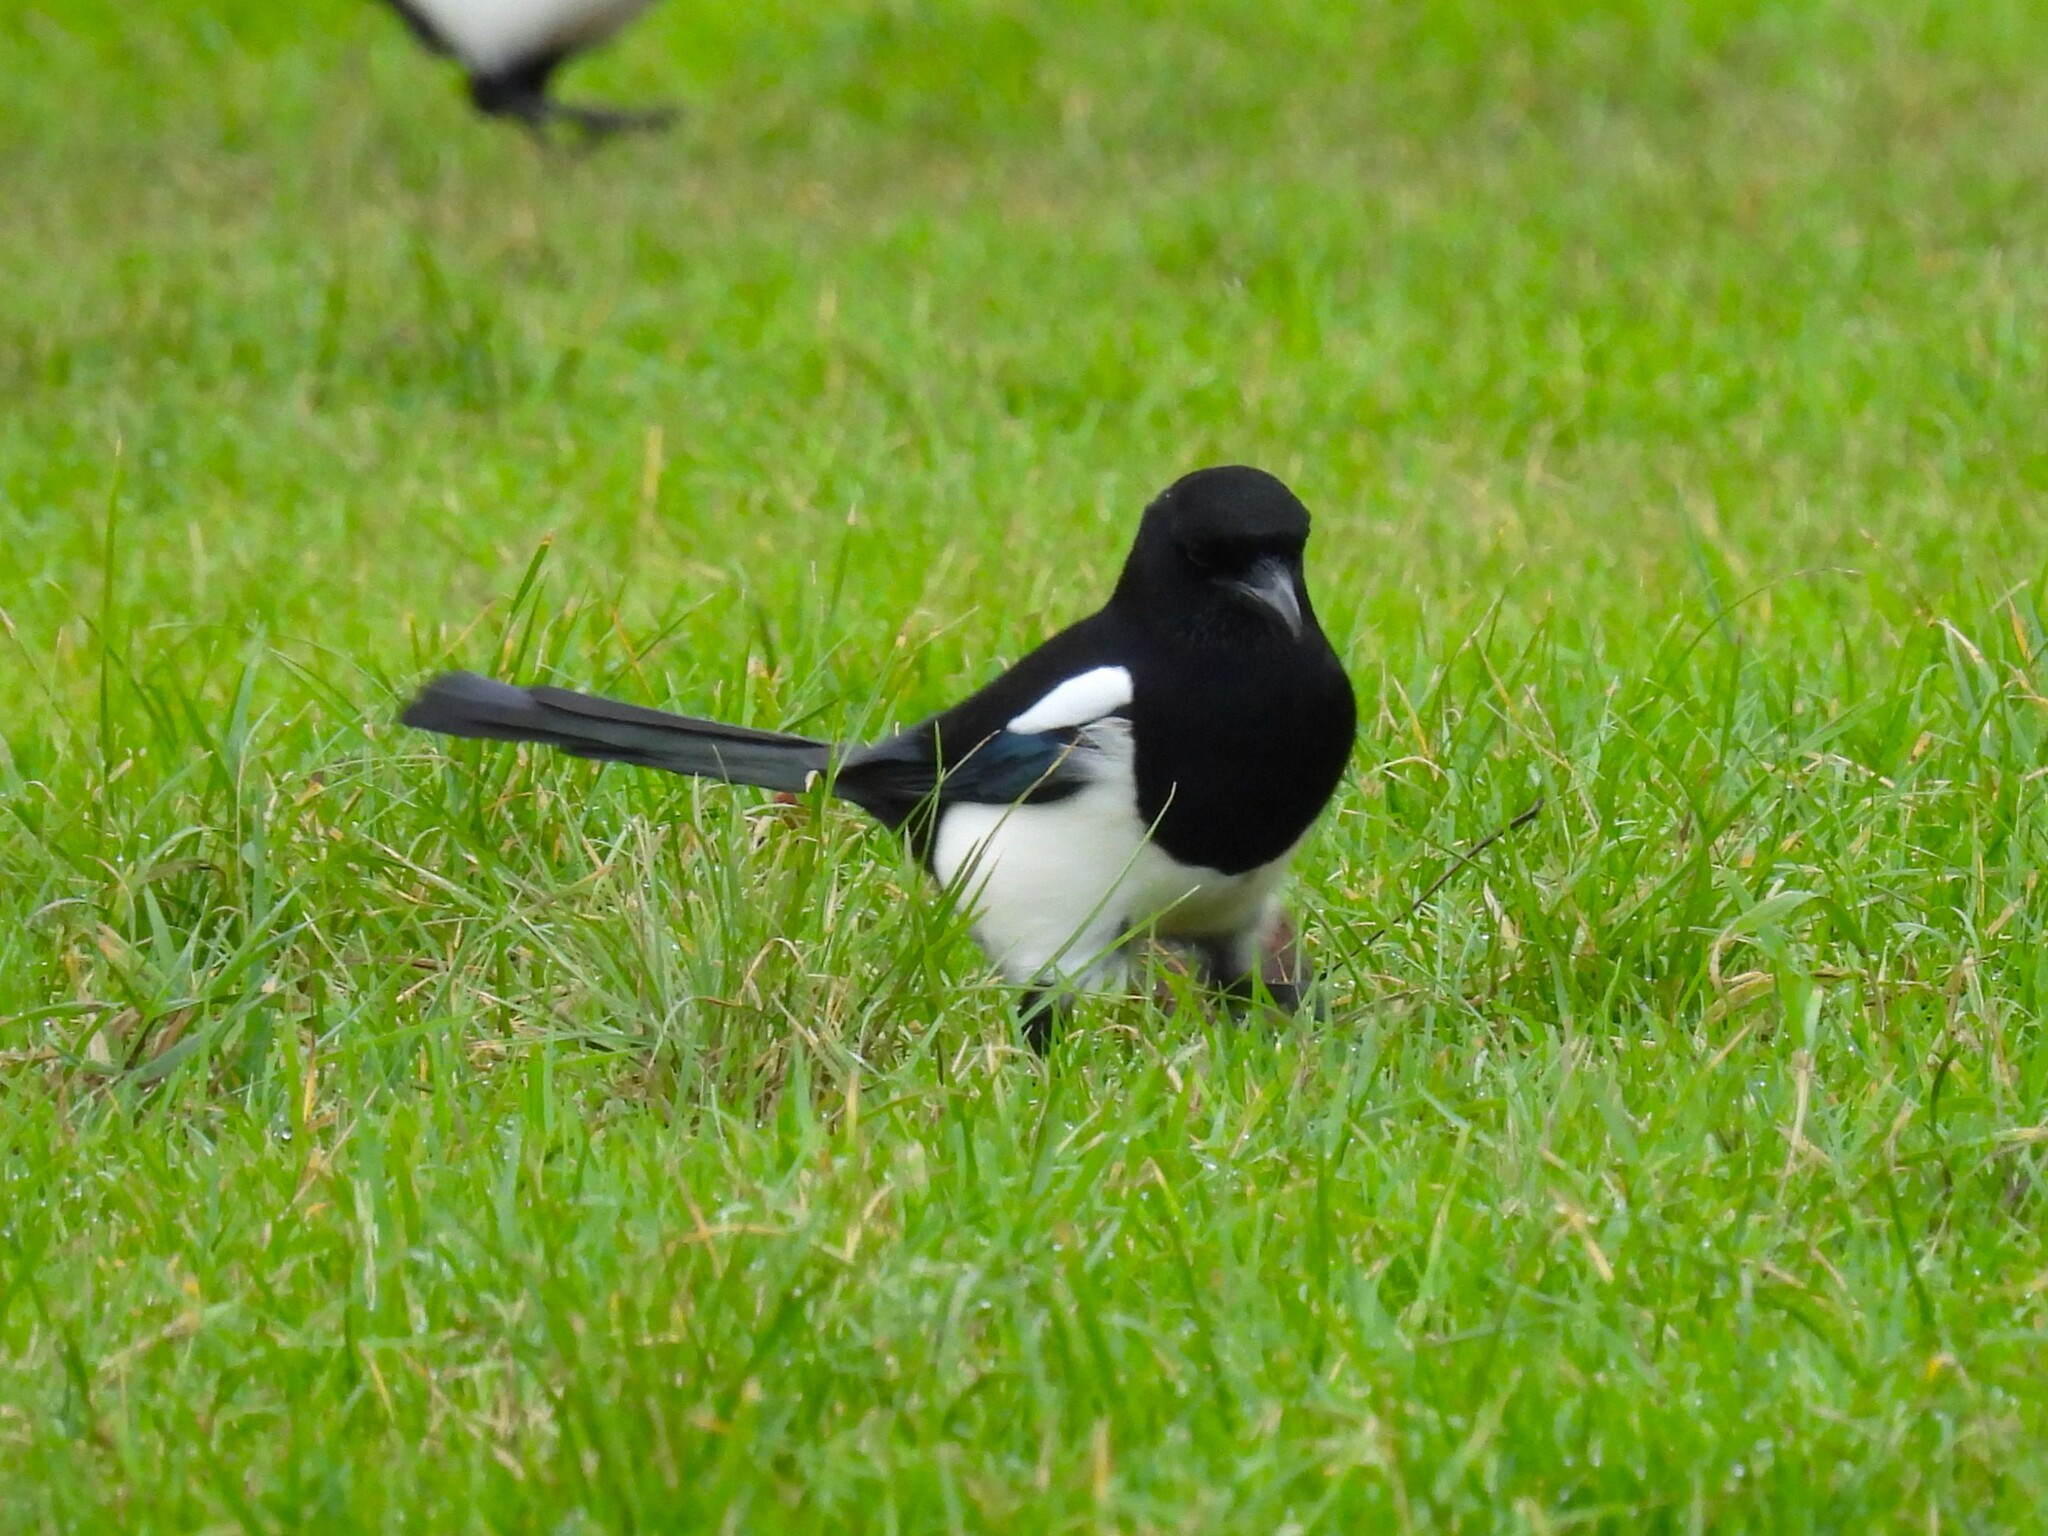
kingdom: Animalia
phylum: Chordata
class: Aves
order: Passeriformes
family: Corvidae
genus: Pica
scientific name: Pica pica
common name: Eurasian magpie
